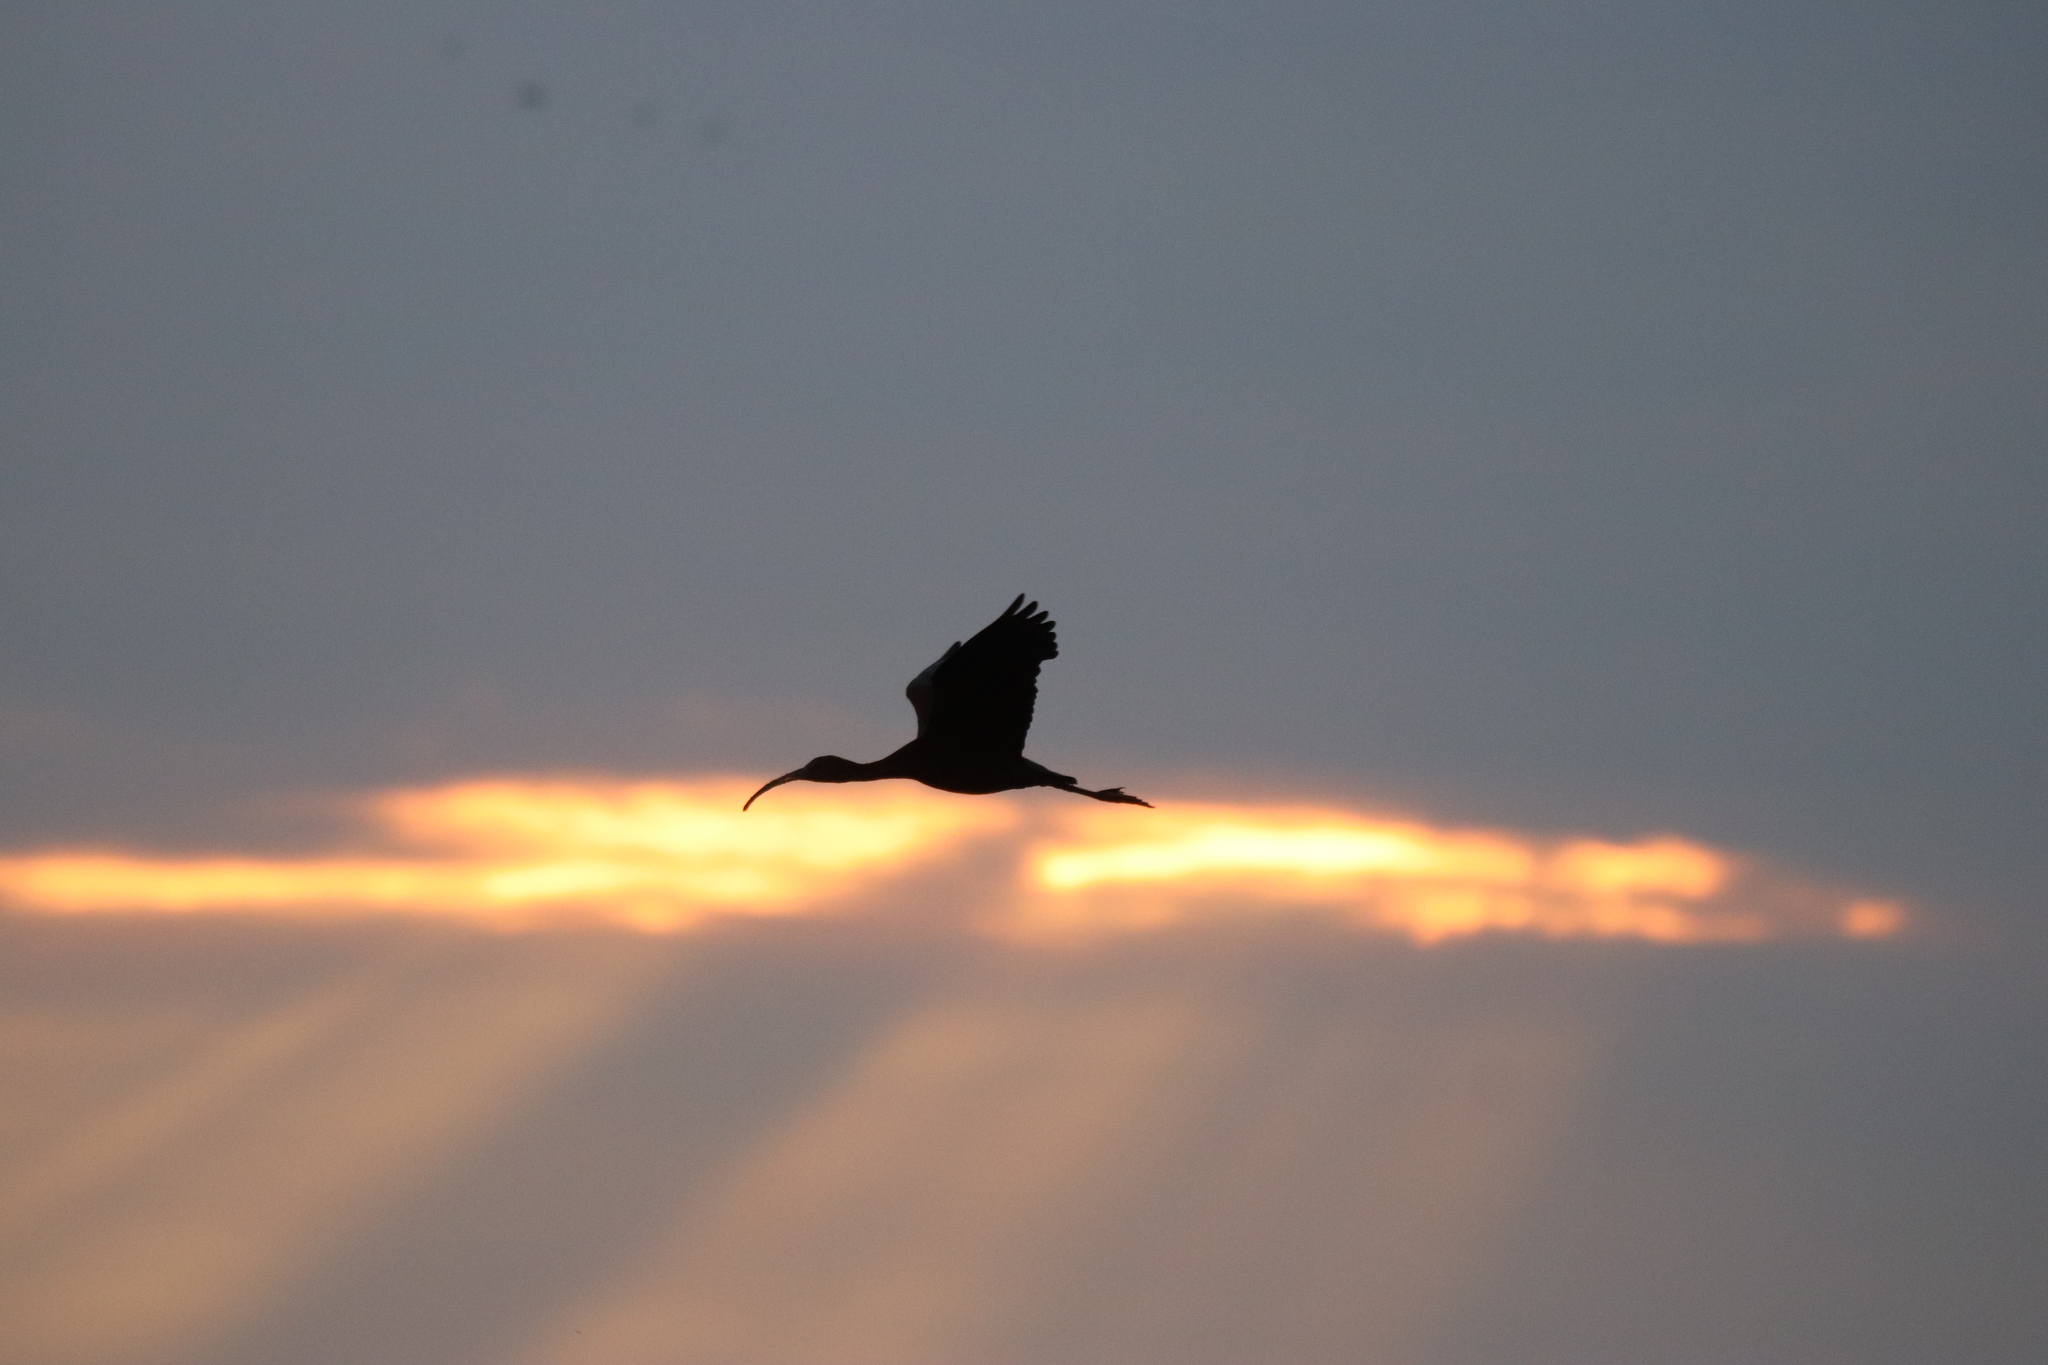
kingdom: Animalia
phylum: Chordata
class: Aves
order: Pelecaniformes
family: Threskiornithidae
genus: Plegadis
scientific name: Plegadis chihi
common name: White-faced ibis
